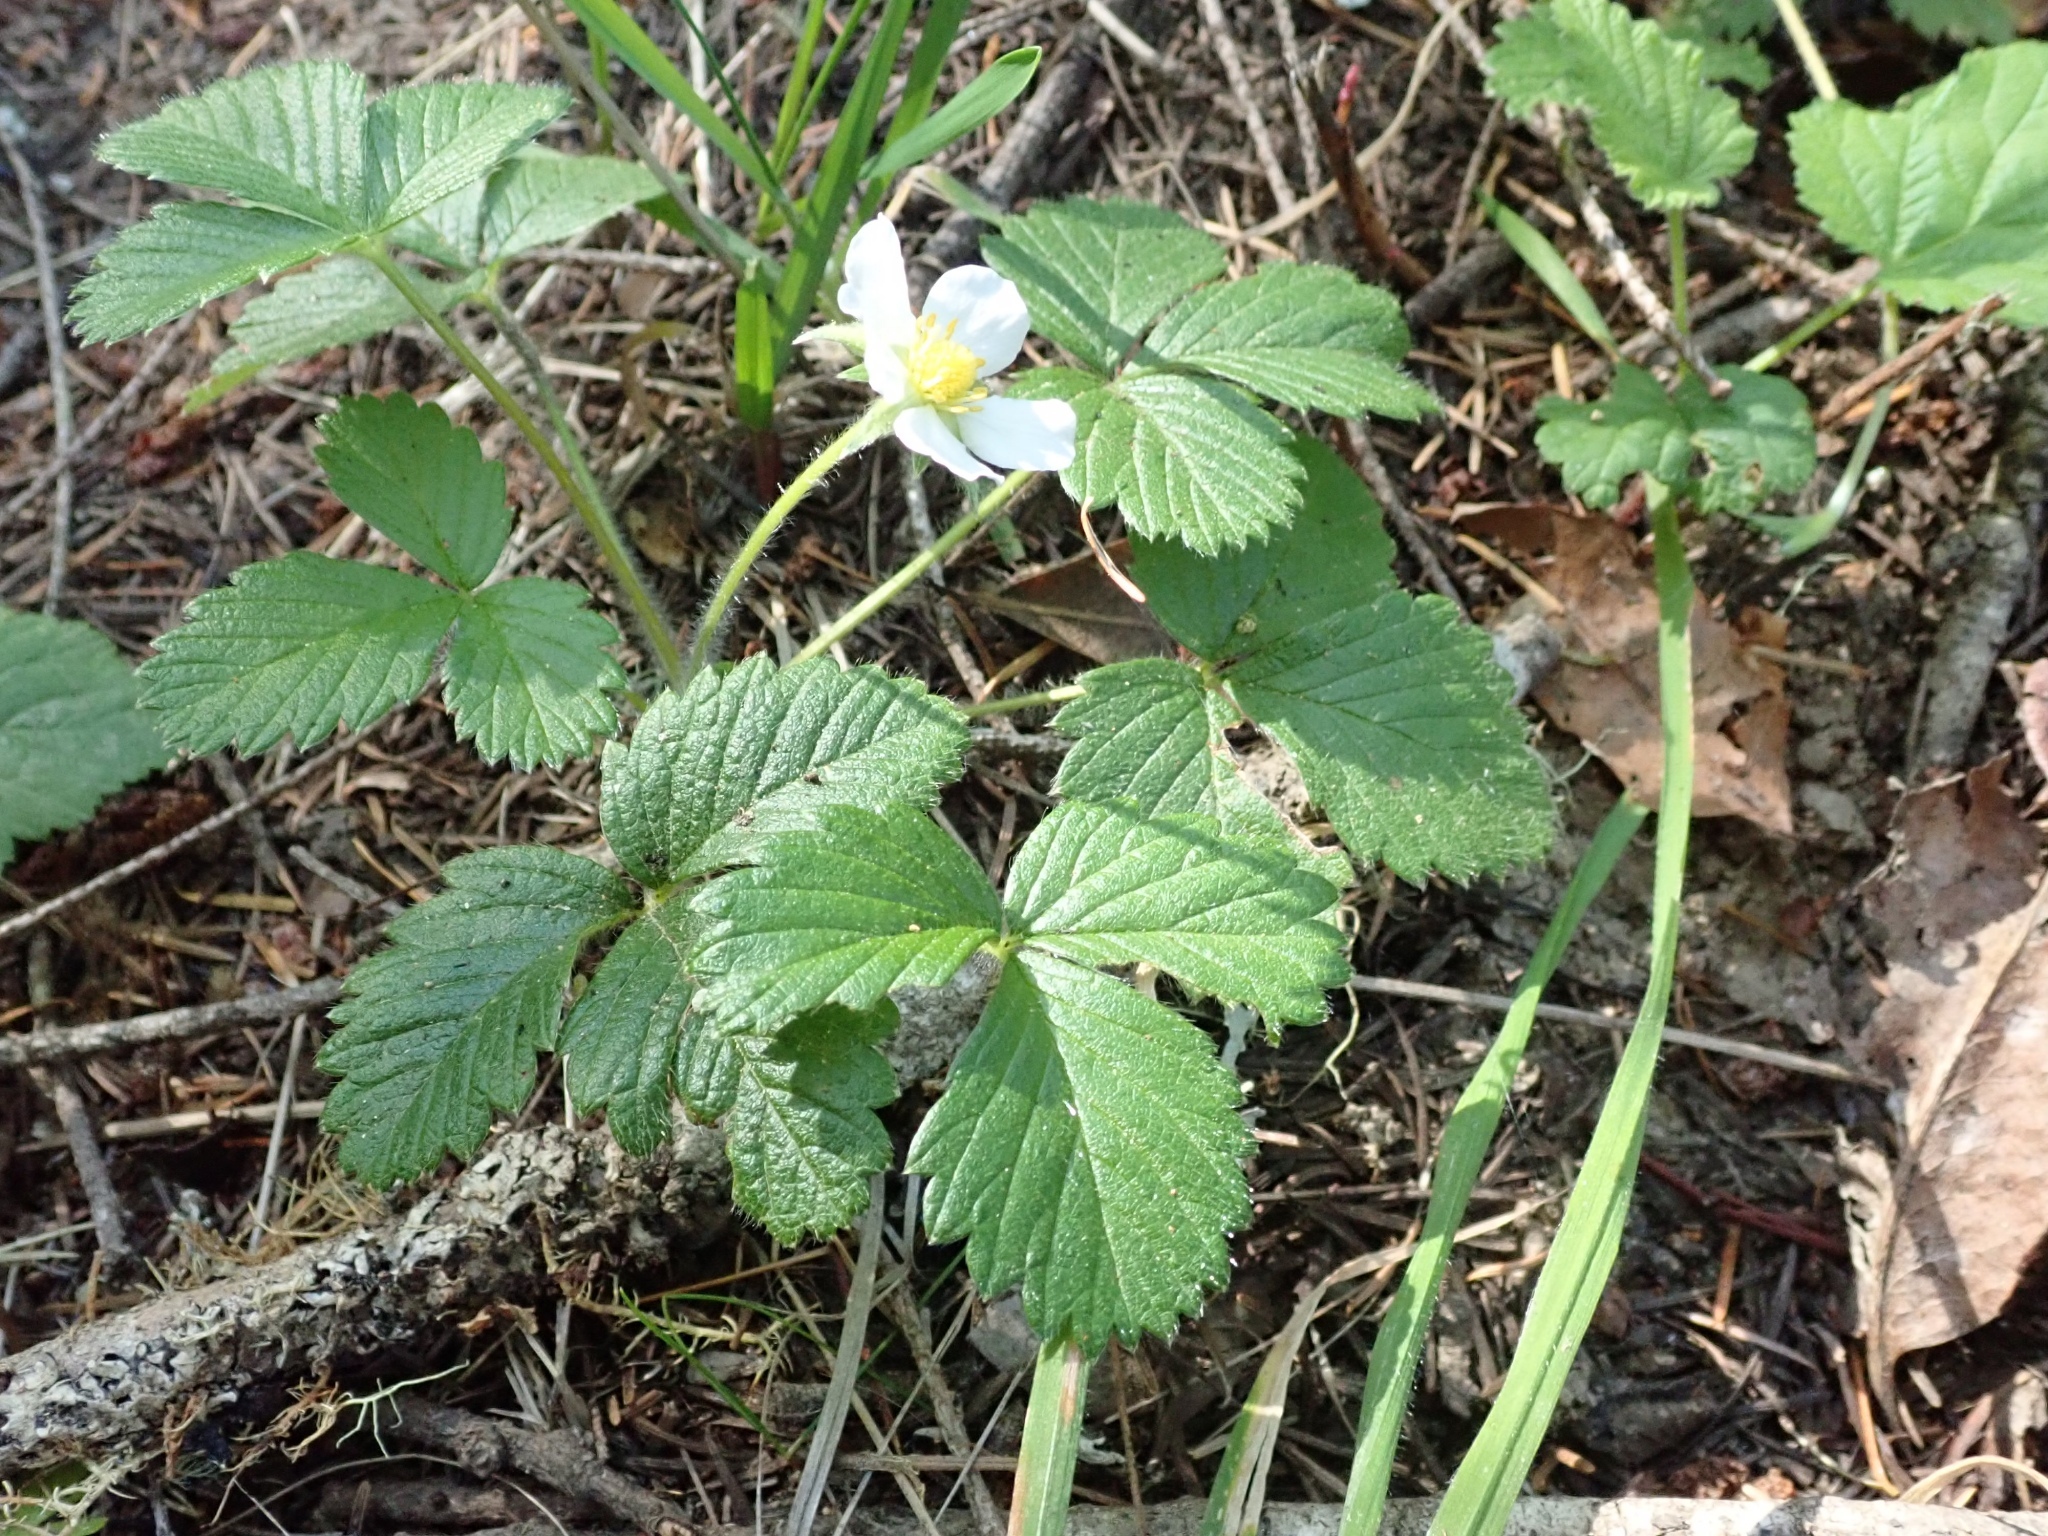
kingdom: Plantae
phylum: Tracheophyta
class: Magnoliopsida
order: Rosales
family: Rosaceae
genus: Fragaria
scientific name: Fragaria vesca
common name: Wild strawberry
